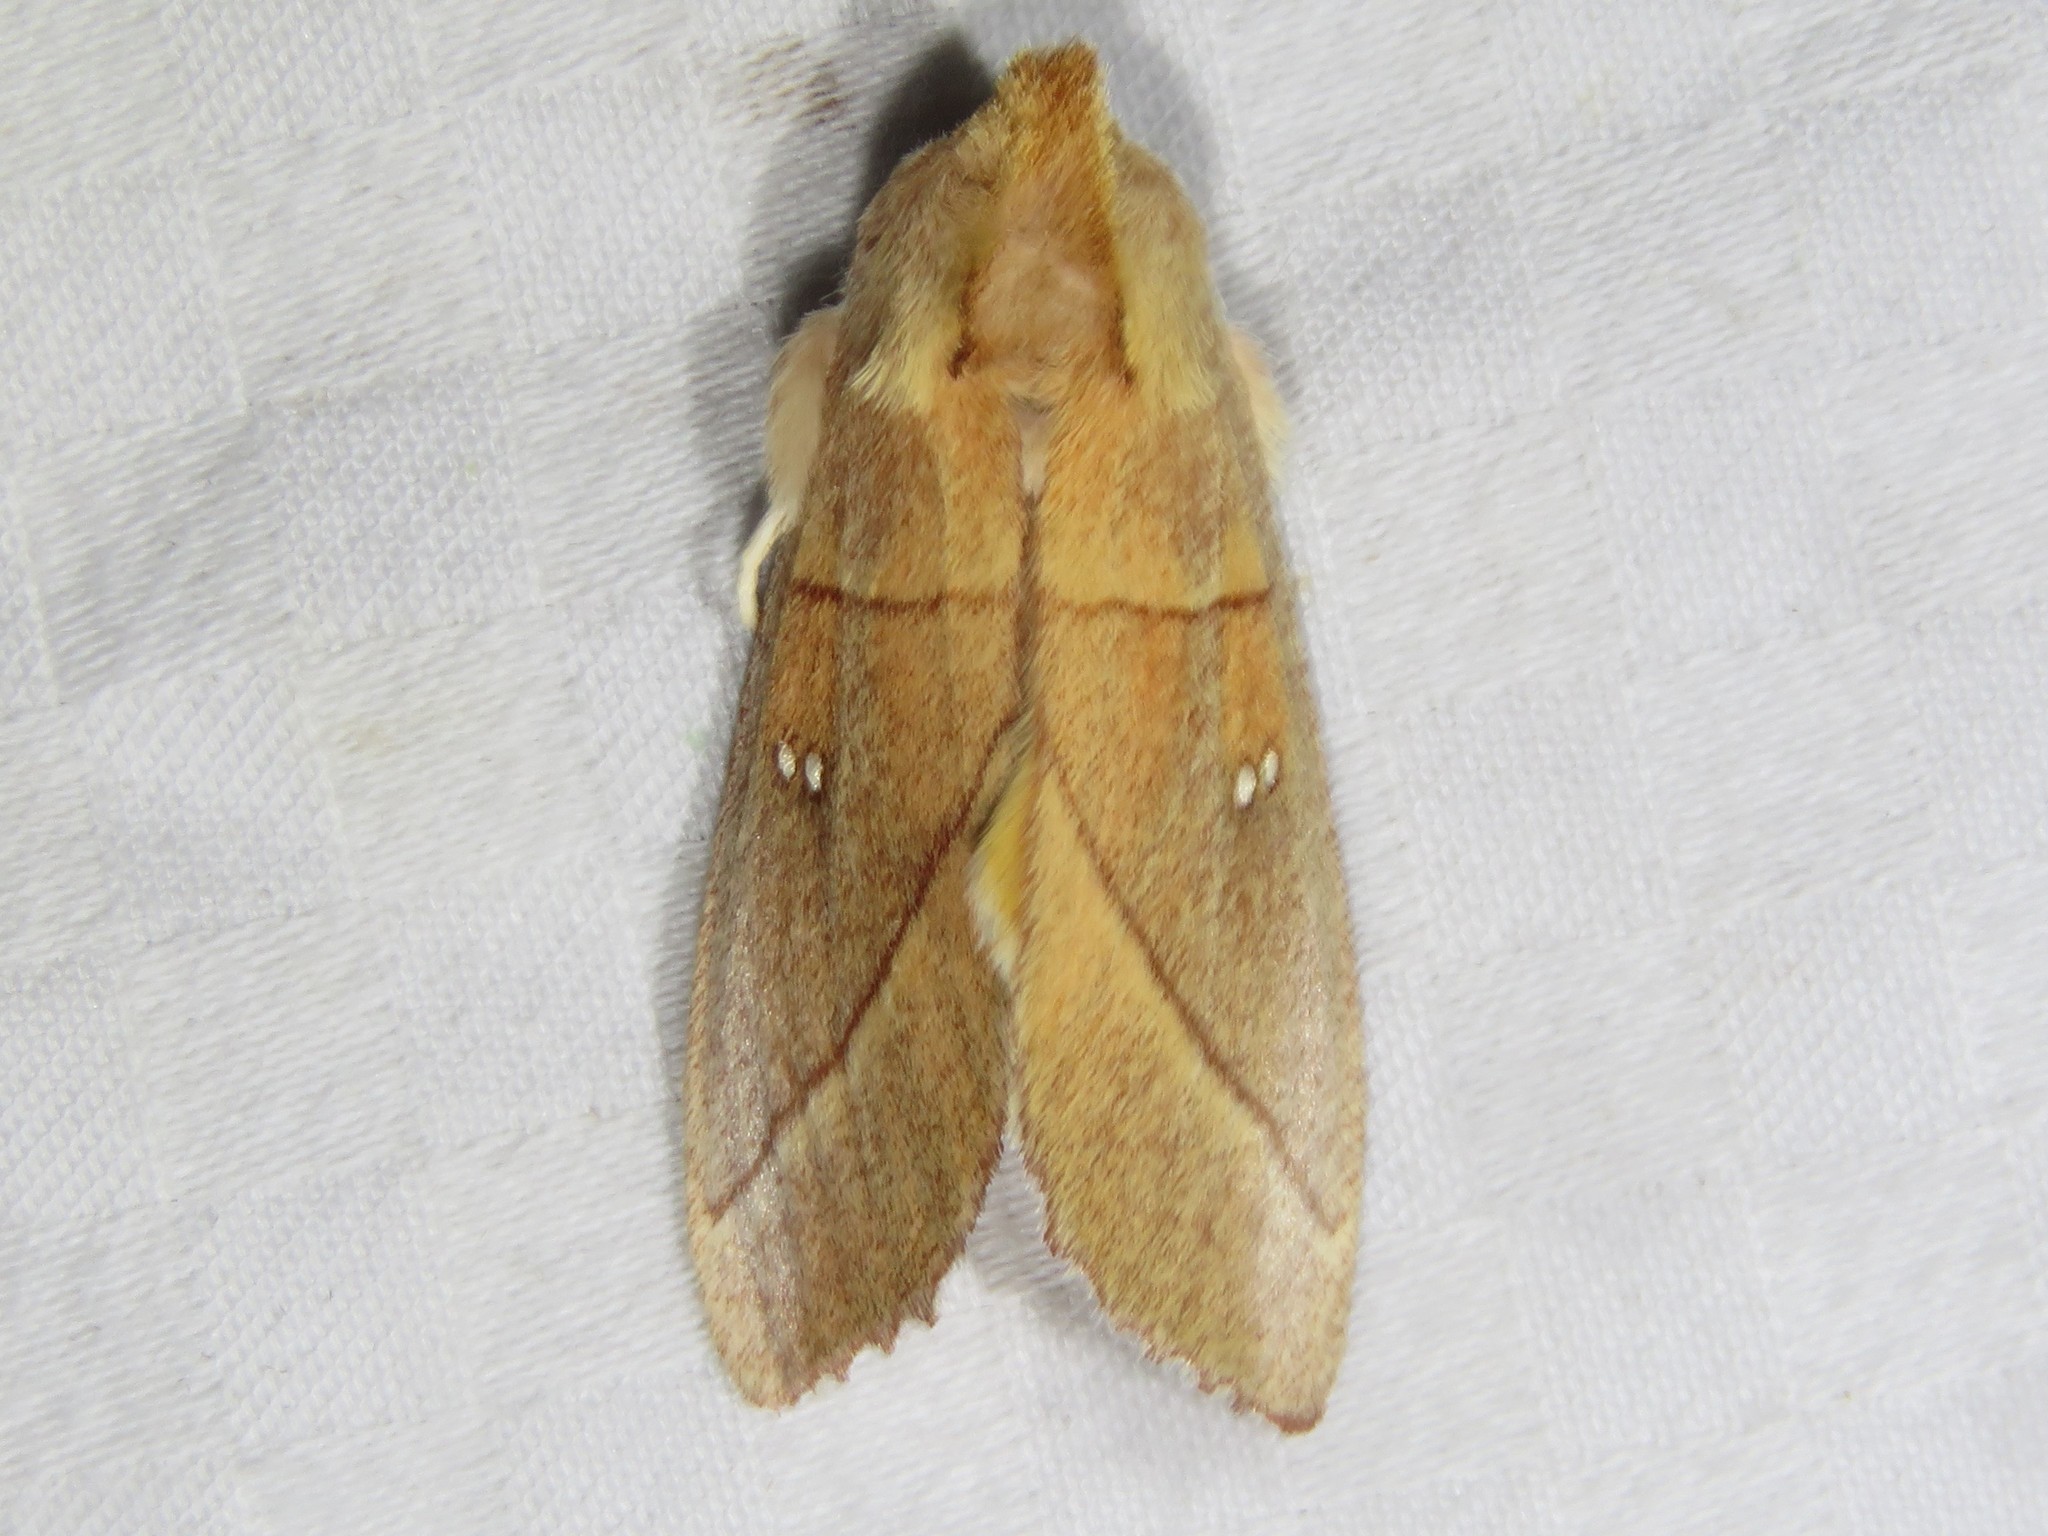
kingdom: Animalia
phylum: Arthropoda
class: Insecta
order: Lepidoptera
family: Notodontidae
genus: Nadata
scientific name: Nadata gibbosa
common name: White-dotted prominent
